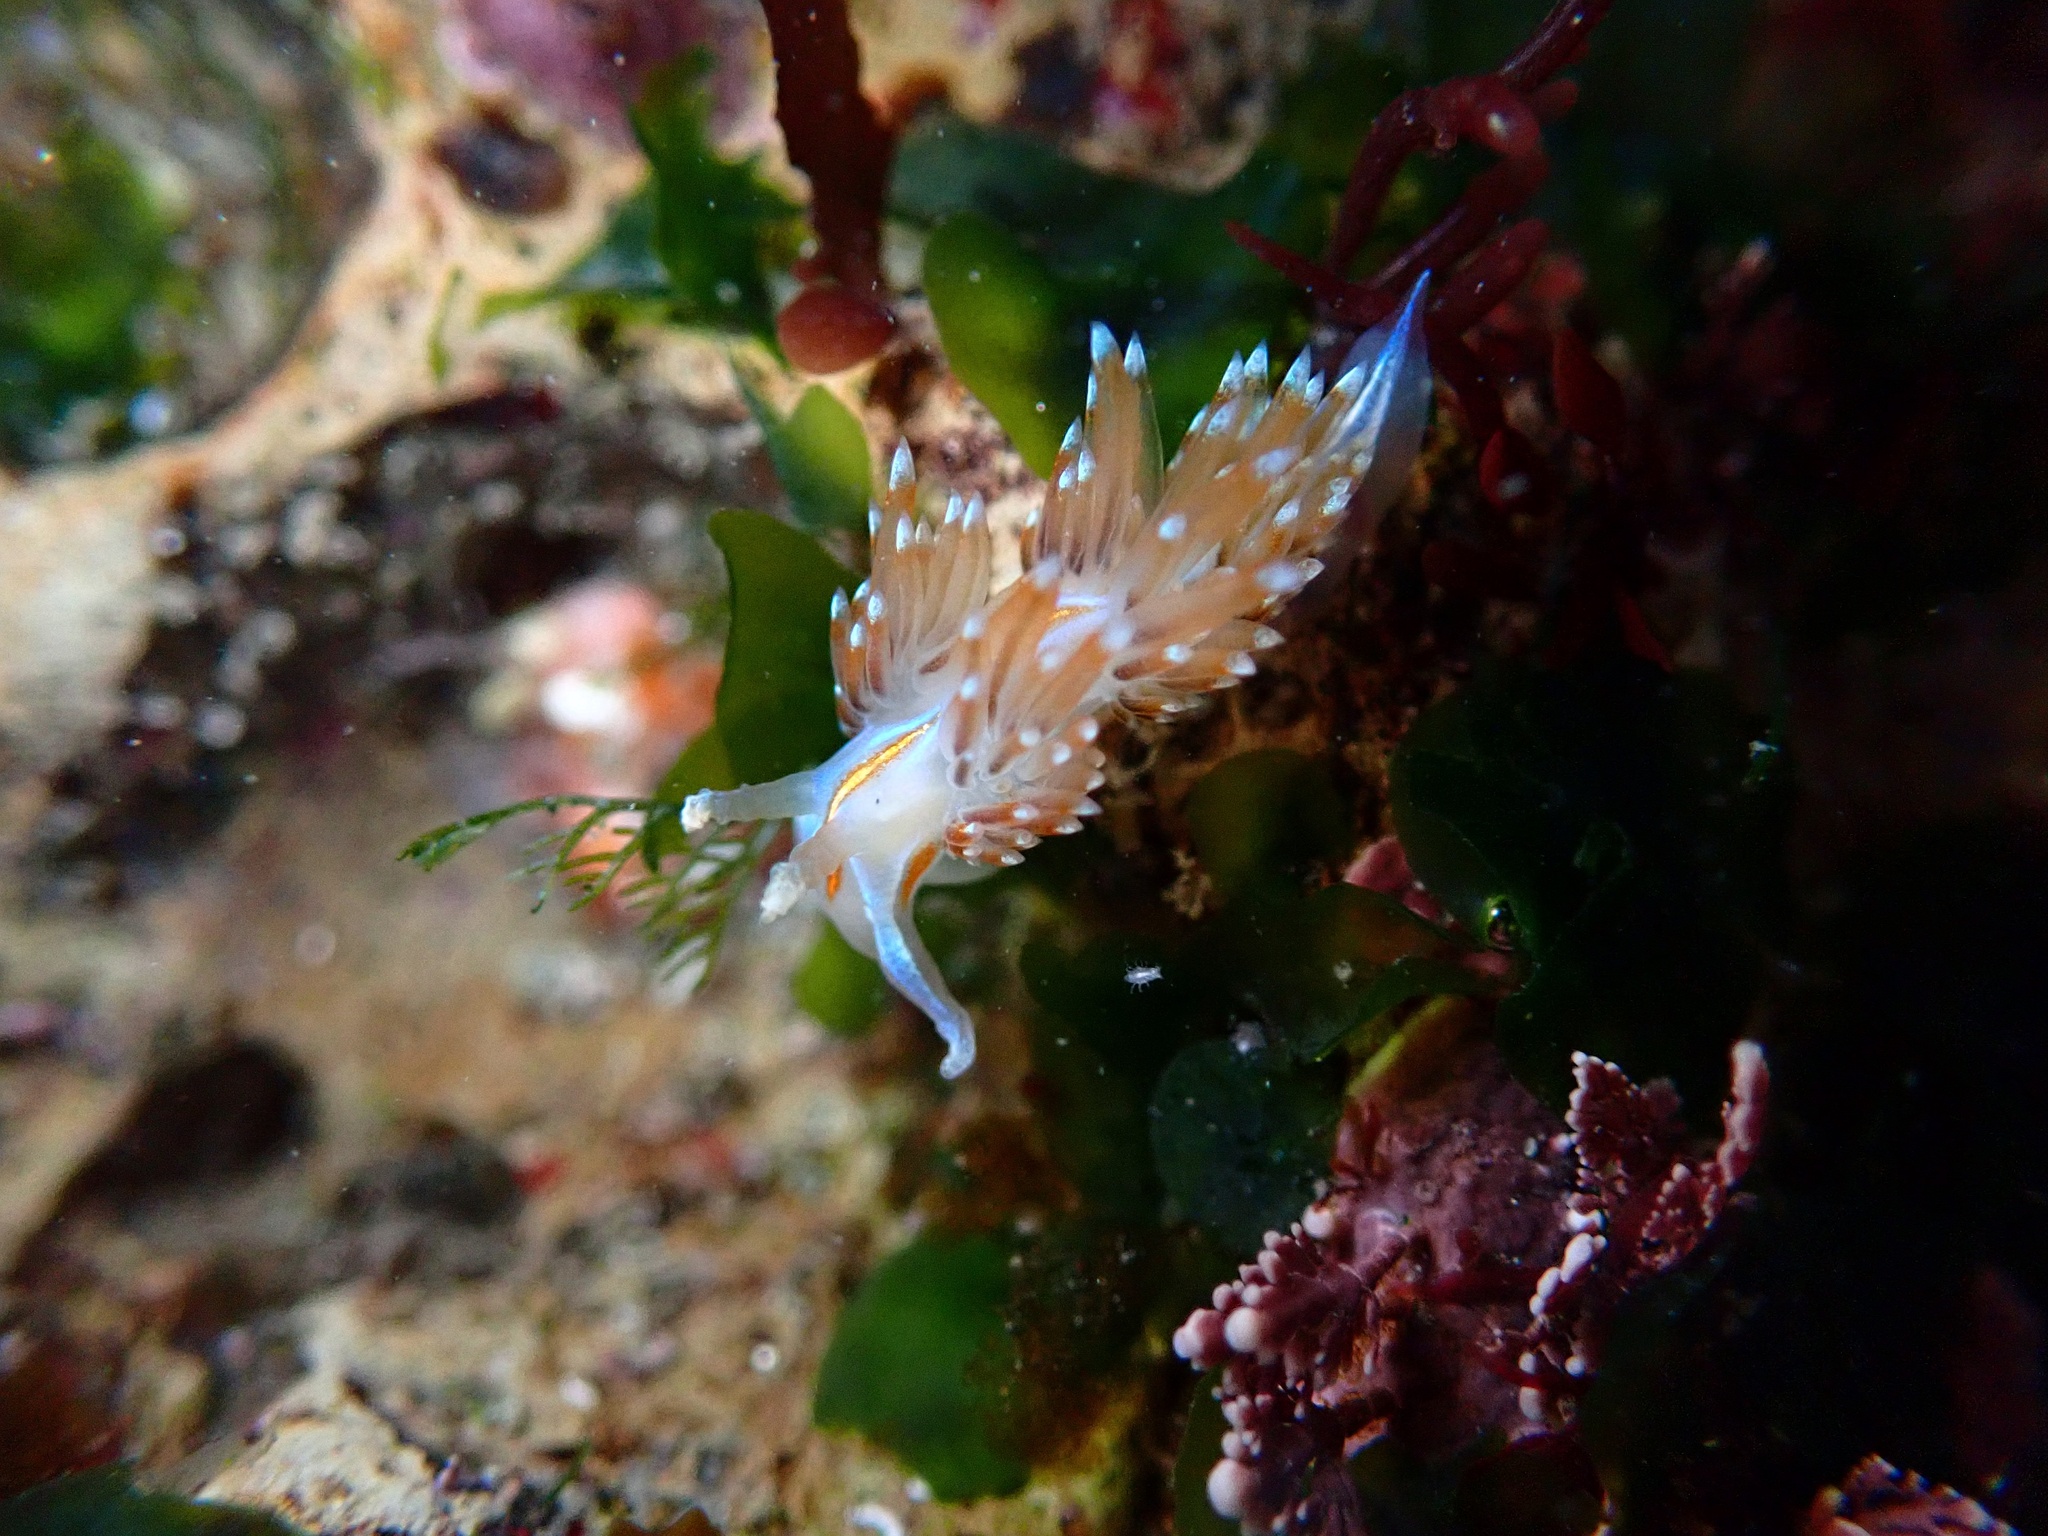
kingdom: Animalia
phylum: Mollusca
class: Gastropoda
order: Nudibranchia
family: Myrrhinidae
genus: Hermissenda
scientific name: Hermissenda opalescens
